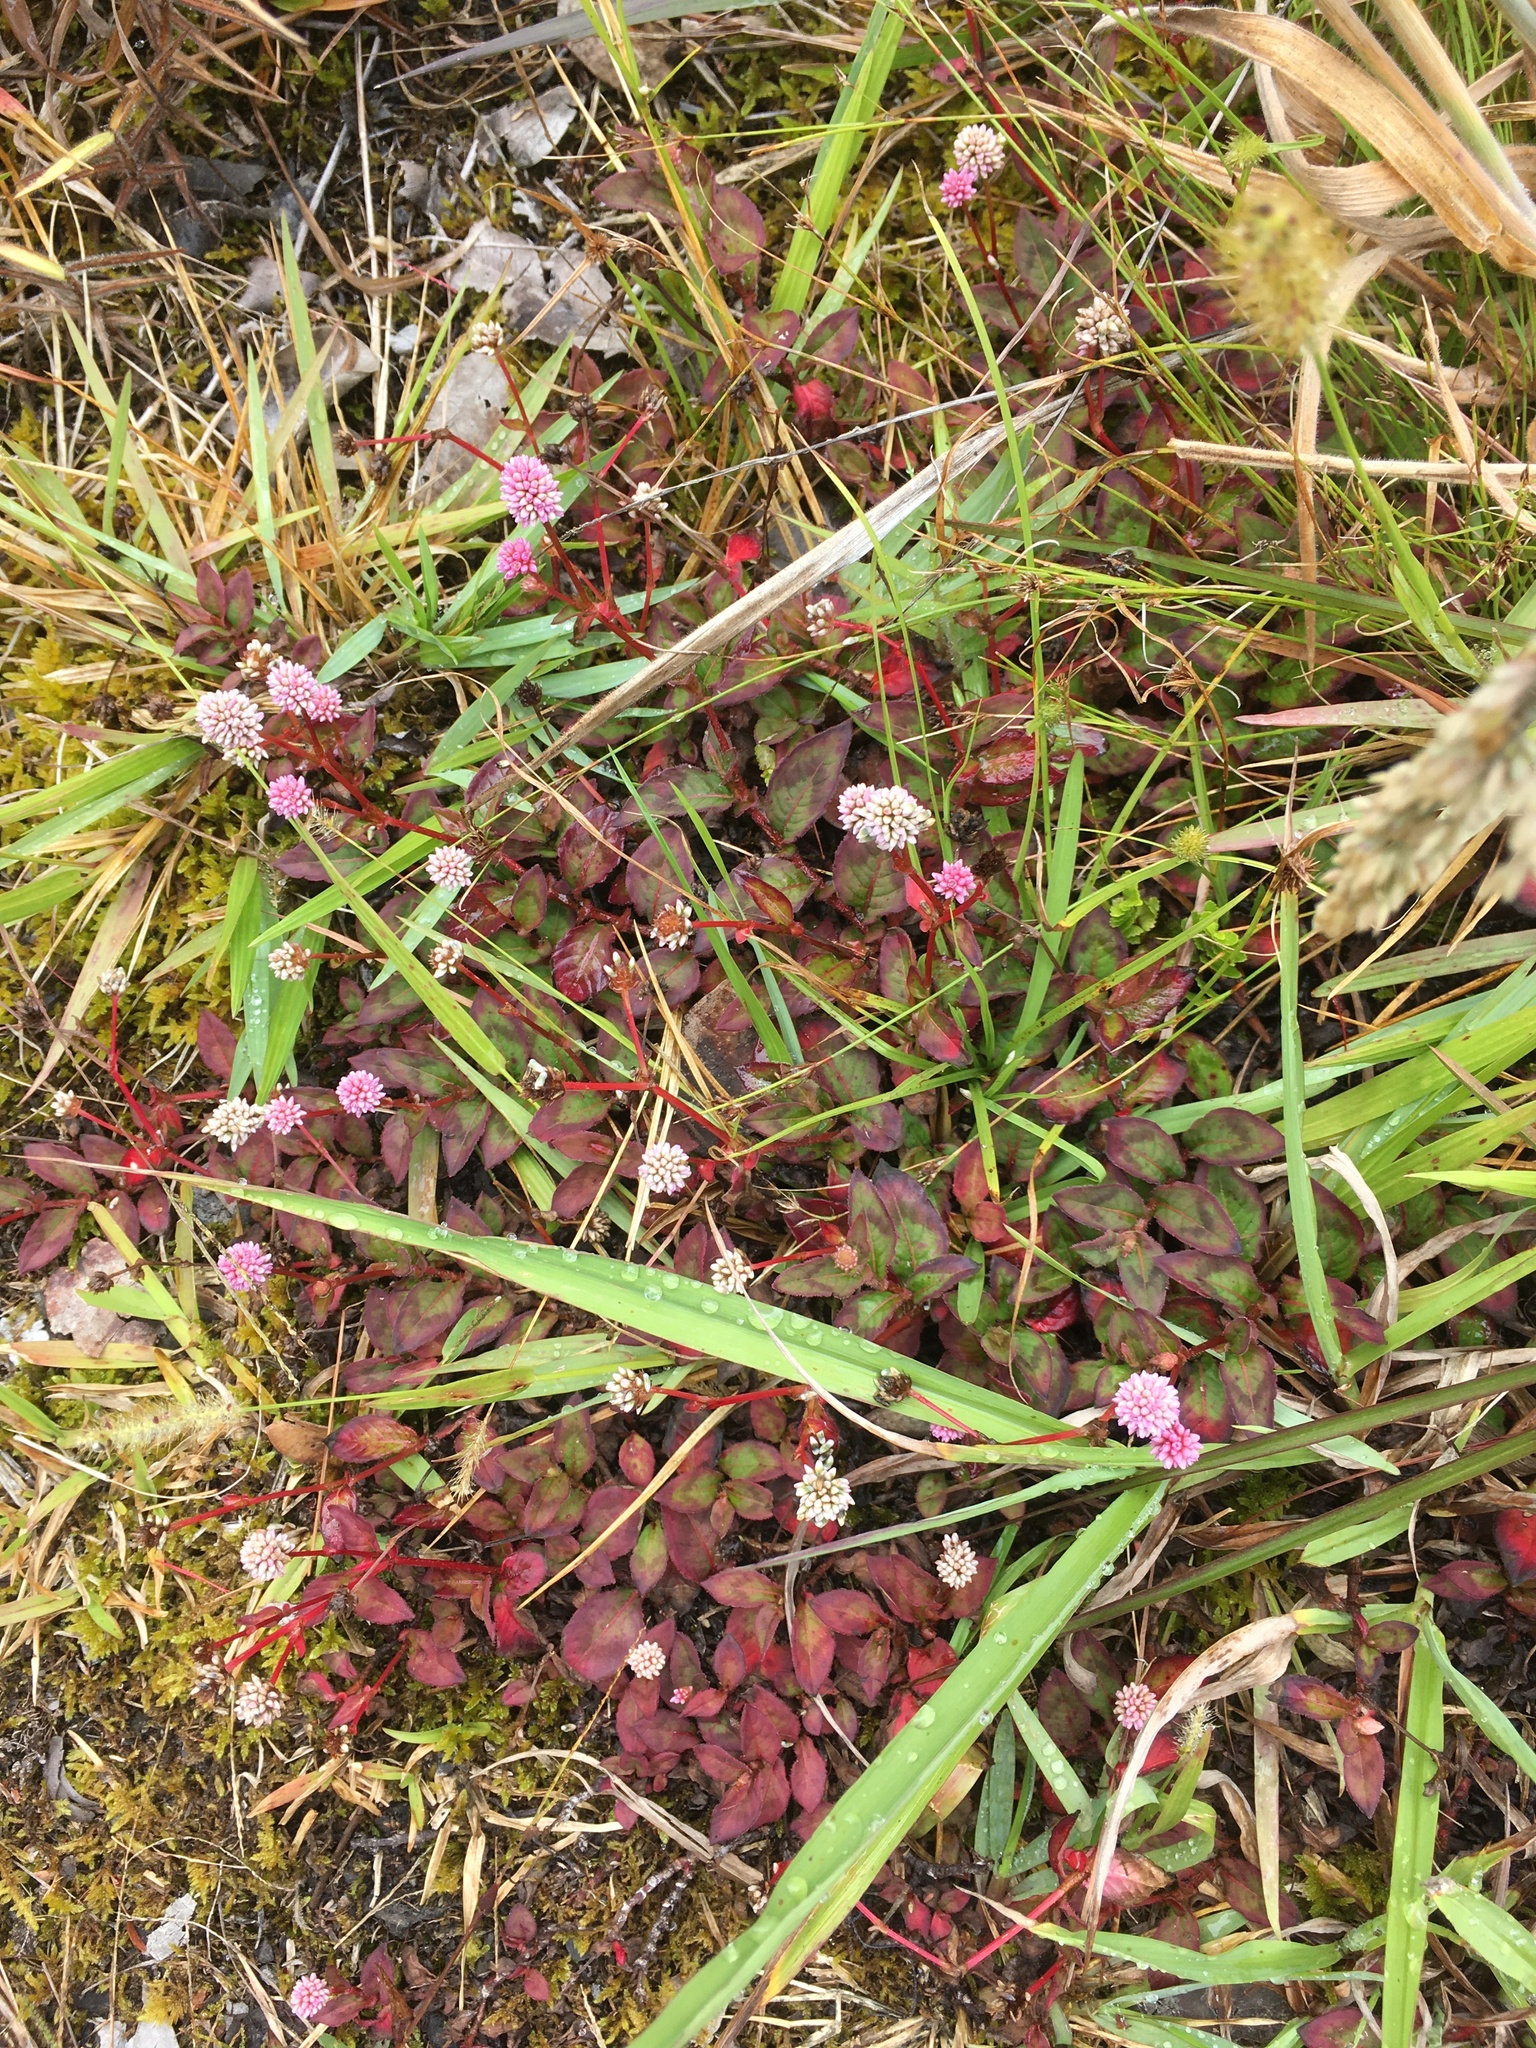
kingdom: Plantae
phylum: Tracheophyta
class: Magnoliopsida
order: Caryophyllales
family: Polygonaceae
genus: Persicaria
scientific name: Persicaria capitata
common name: Pinkhead smartweed
